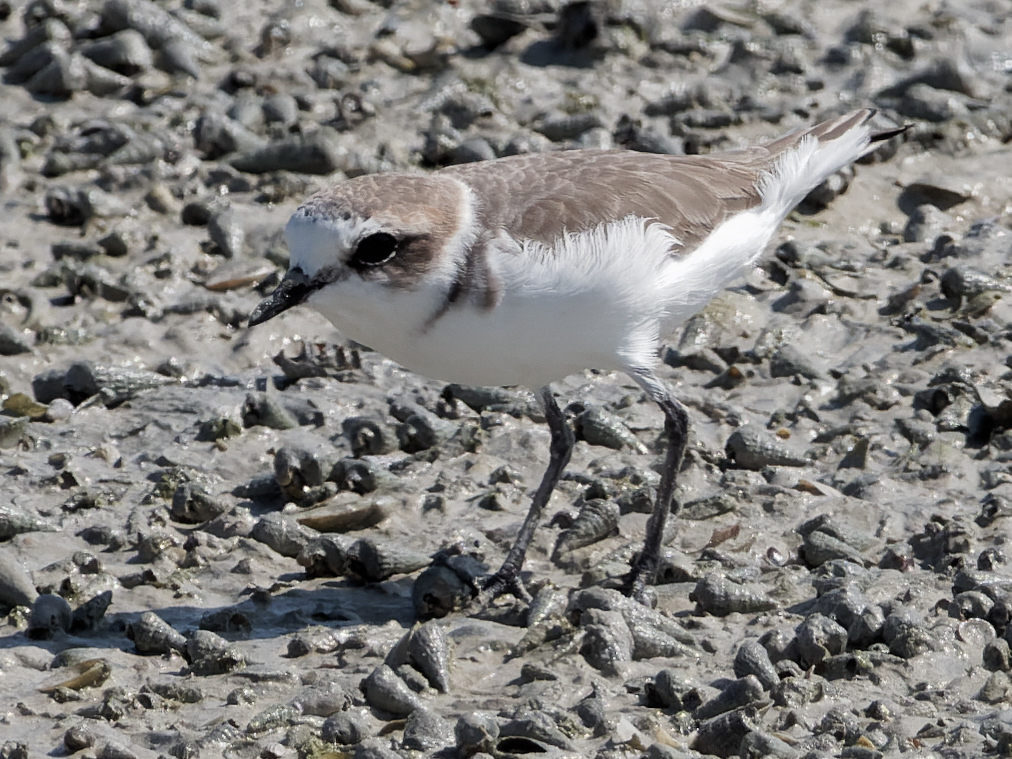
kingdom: Animalia
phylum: Chordata
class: Aves
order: Charadriiformes
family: Charadriidae
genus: Charadrius
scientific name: Charadrius alexandrinus
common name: Kentish plover
